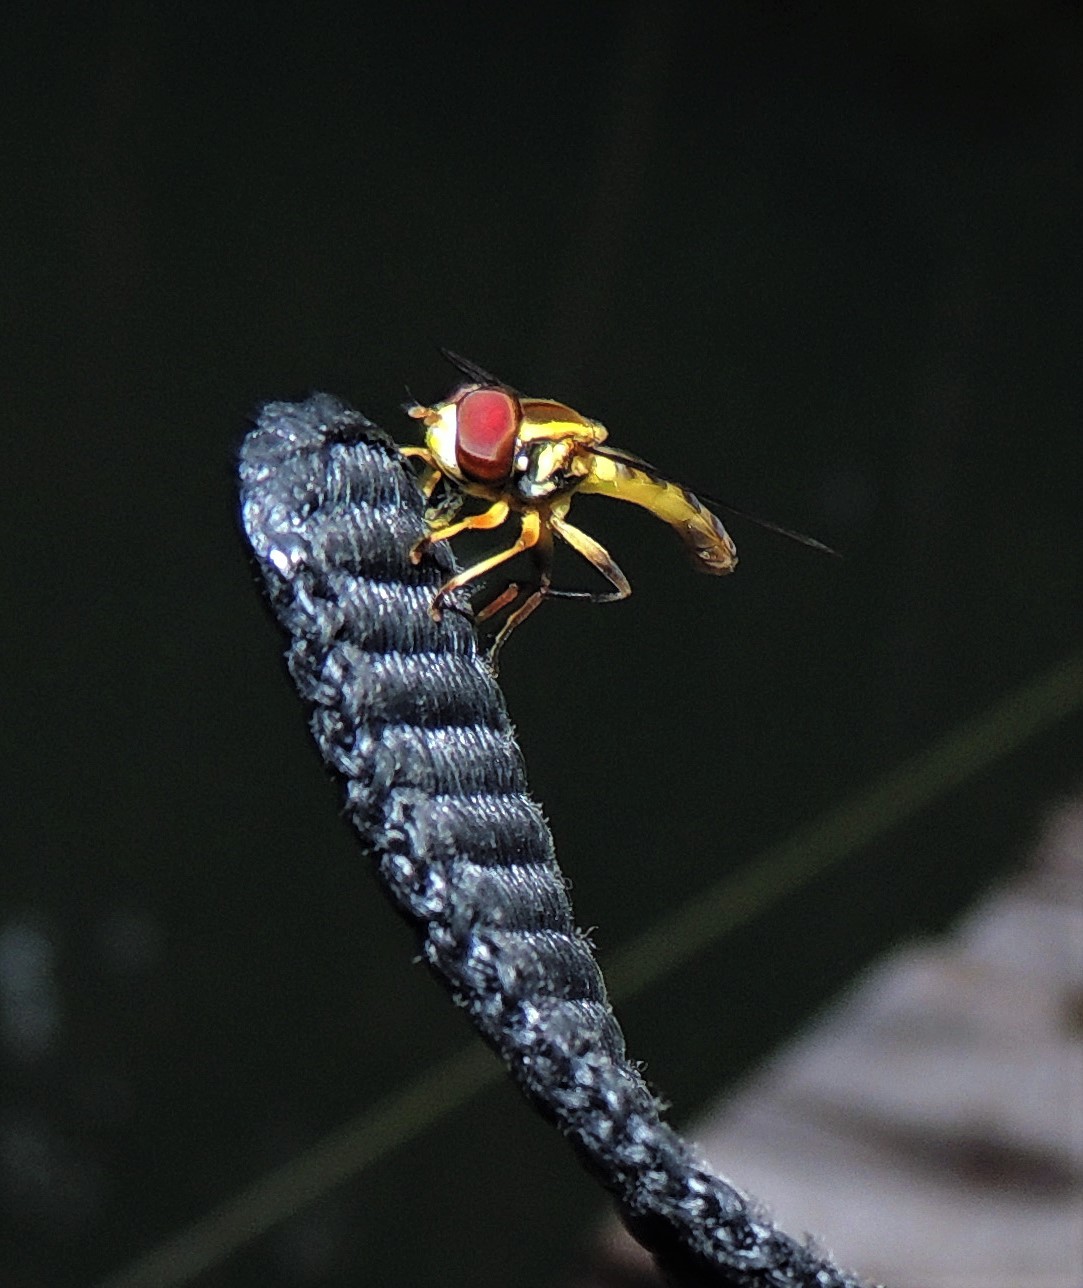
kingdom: Animalia
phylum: Arthropoda
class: Insecta
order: Diptera
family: Syrphidae
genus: Toxomerus
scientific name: Toxomerus
